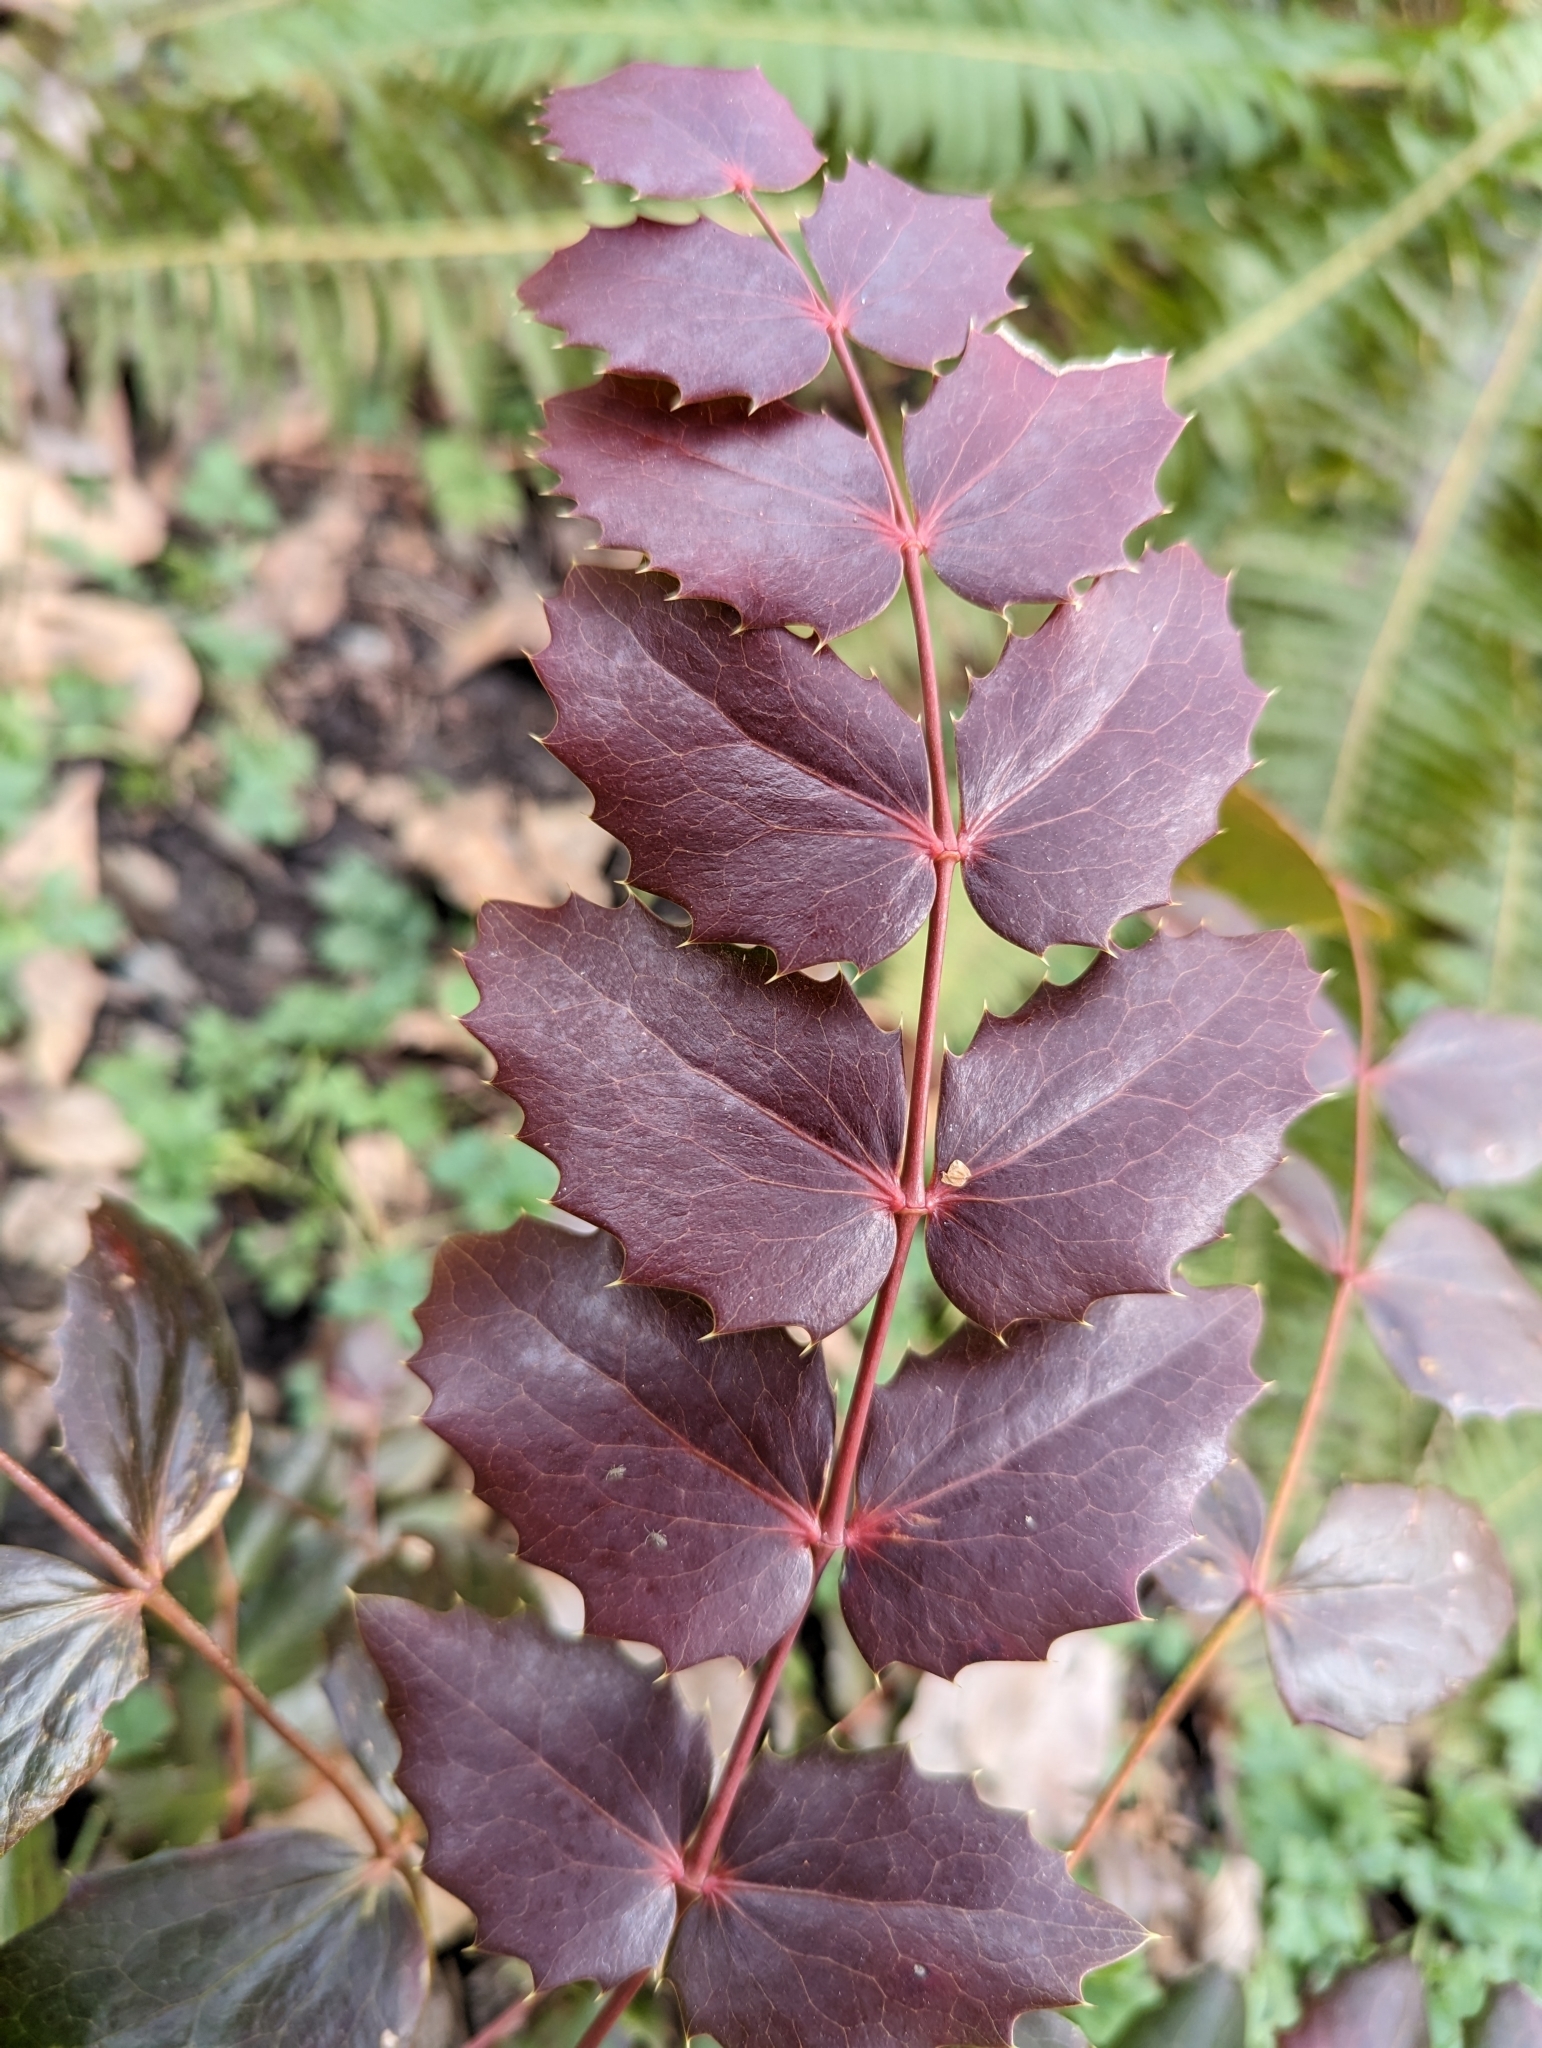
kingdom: Plantae
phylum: Tracheophyta
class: Magnoliopsida
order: Ranunculales
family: Berberidaceae
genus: Mahonia
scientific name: Mahonia nervosa
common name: Cascade oregon-grape
